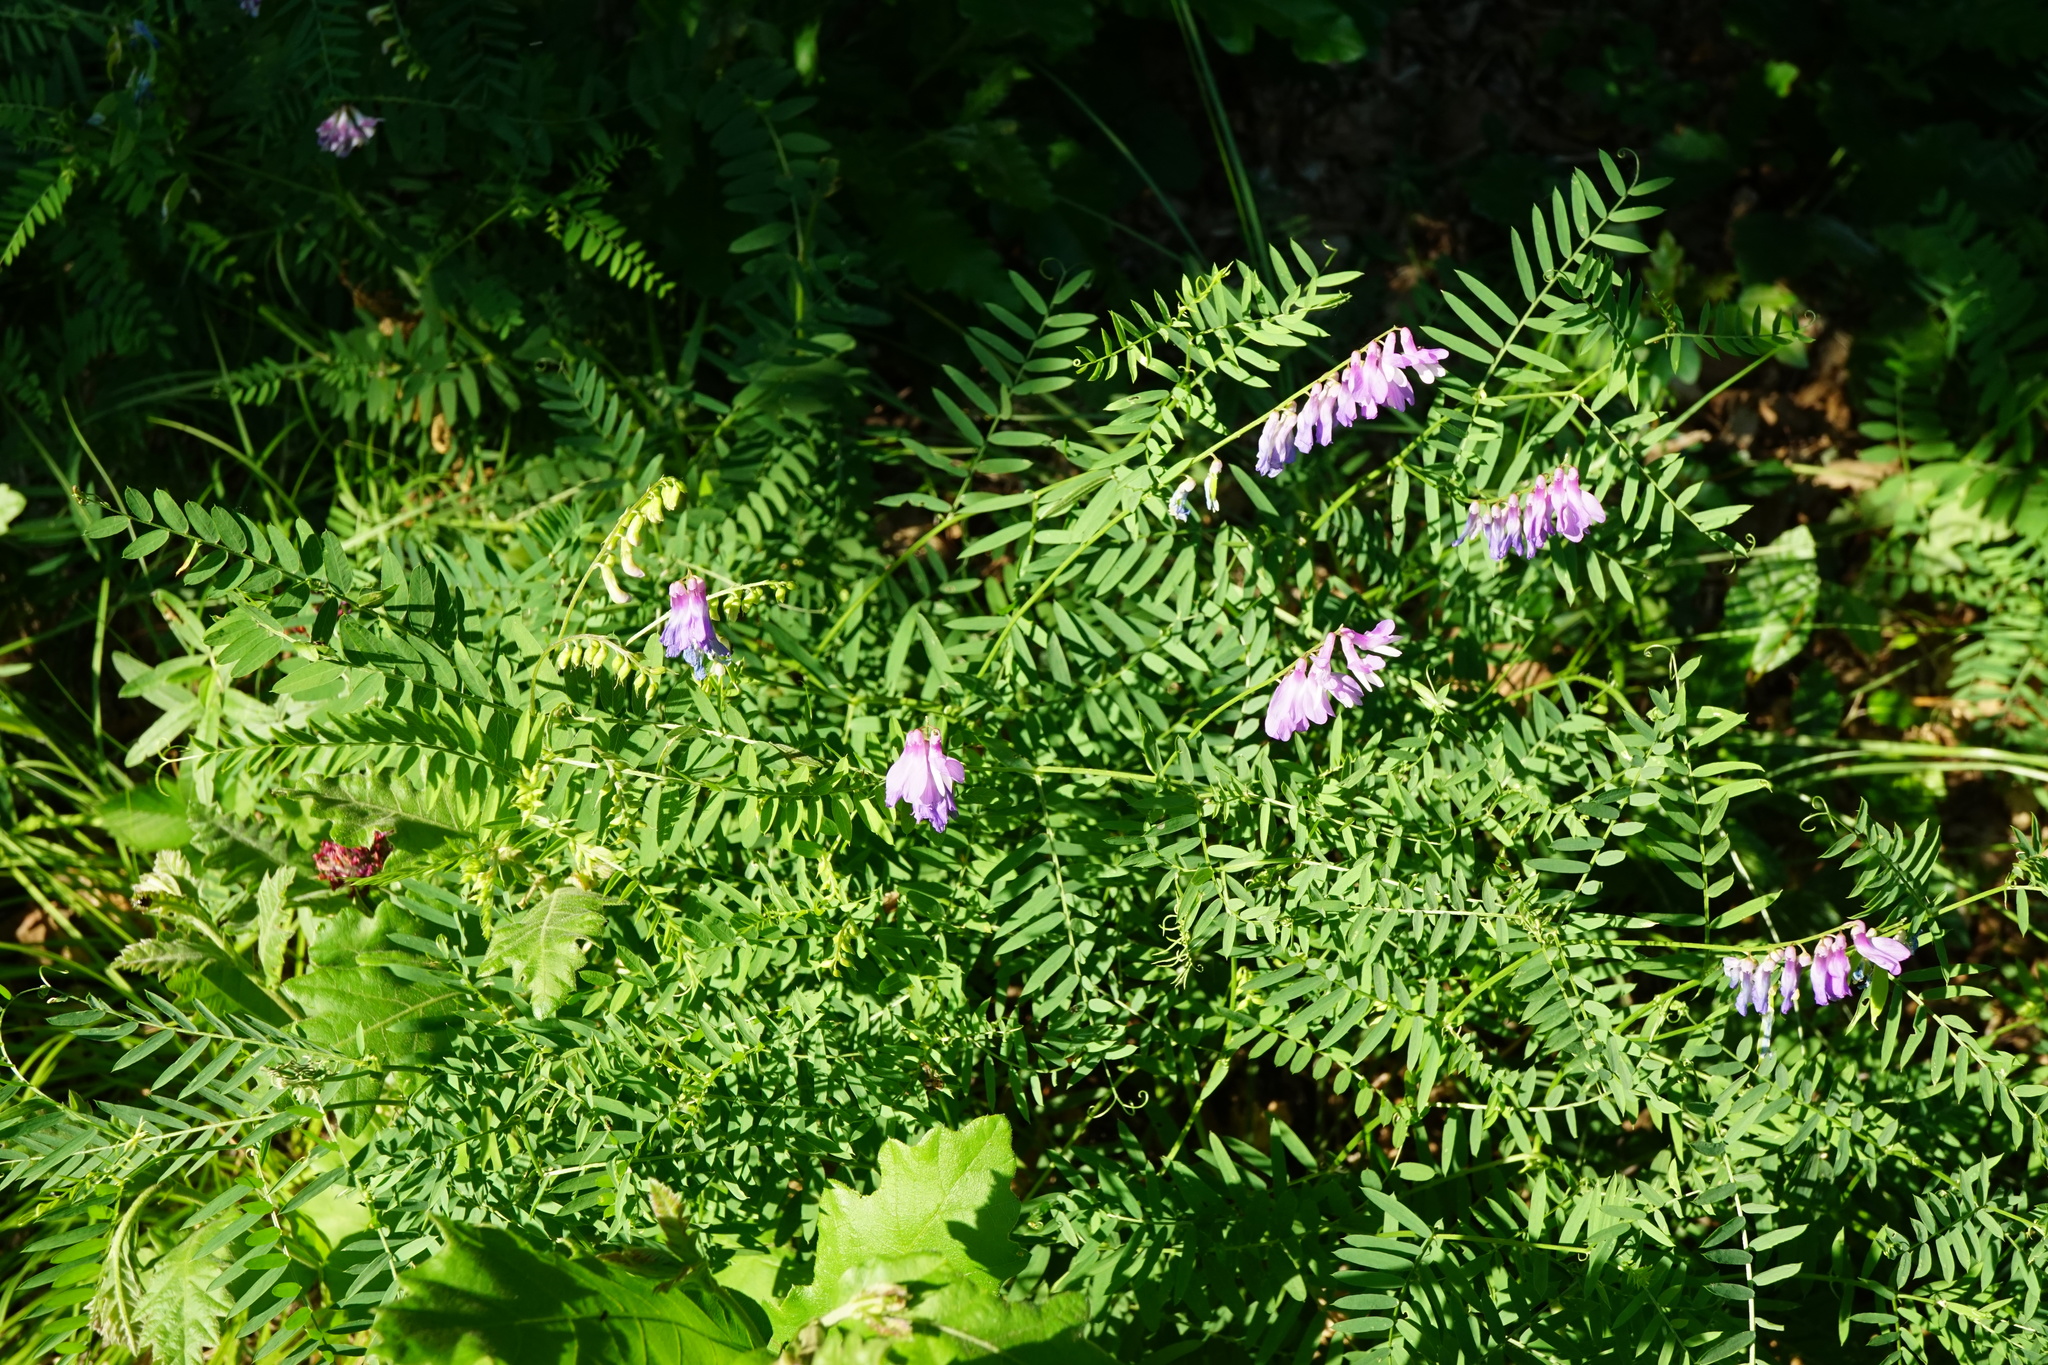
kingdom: Plantae
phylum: Tracheophyta
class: Magnoliopsida
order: Fabales
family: Fabaceae
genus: Vicia
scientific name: Vicia tenuifolia
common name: Fine-leaved vetch
